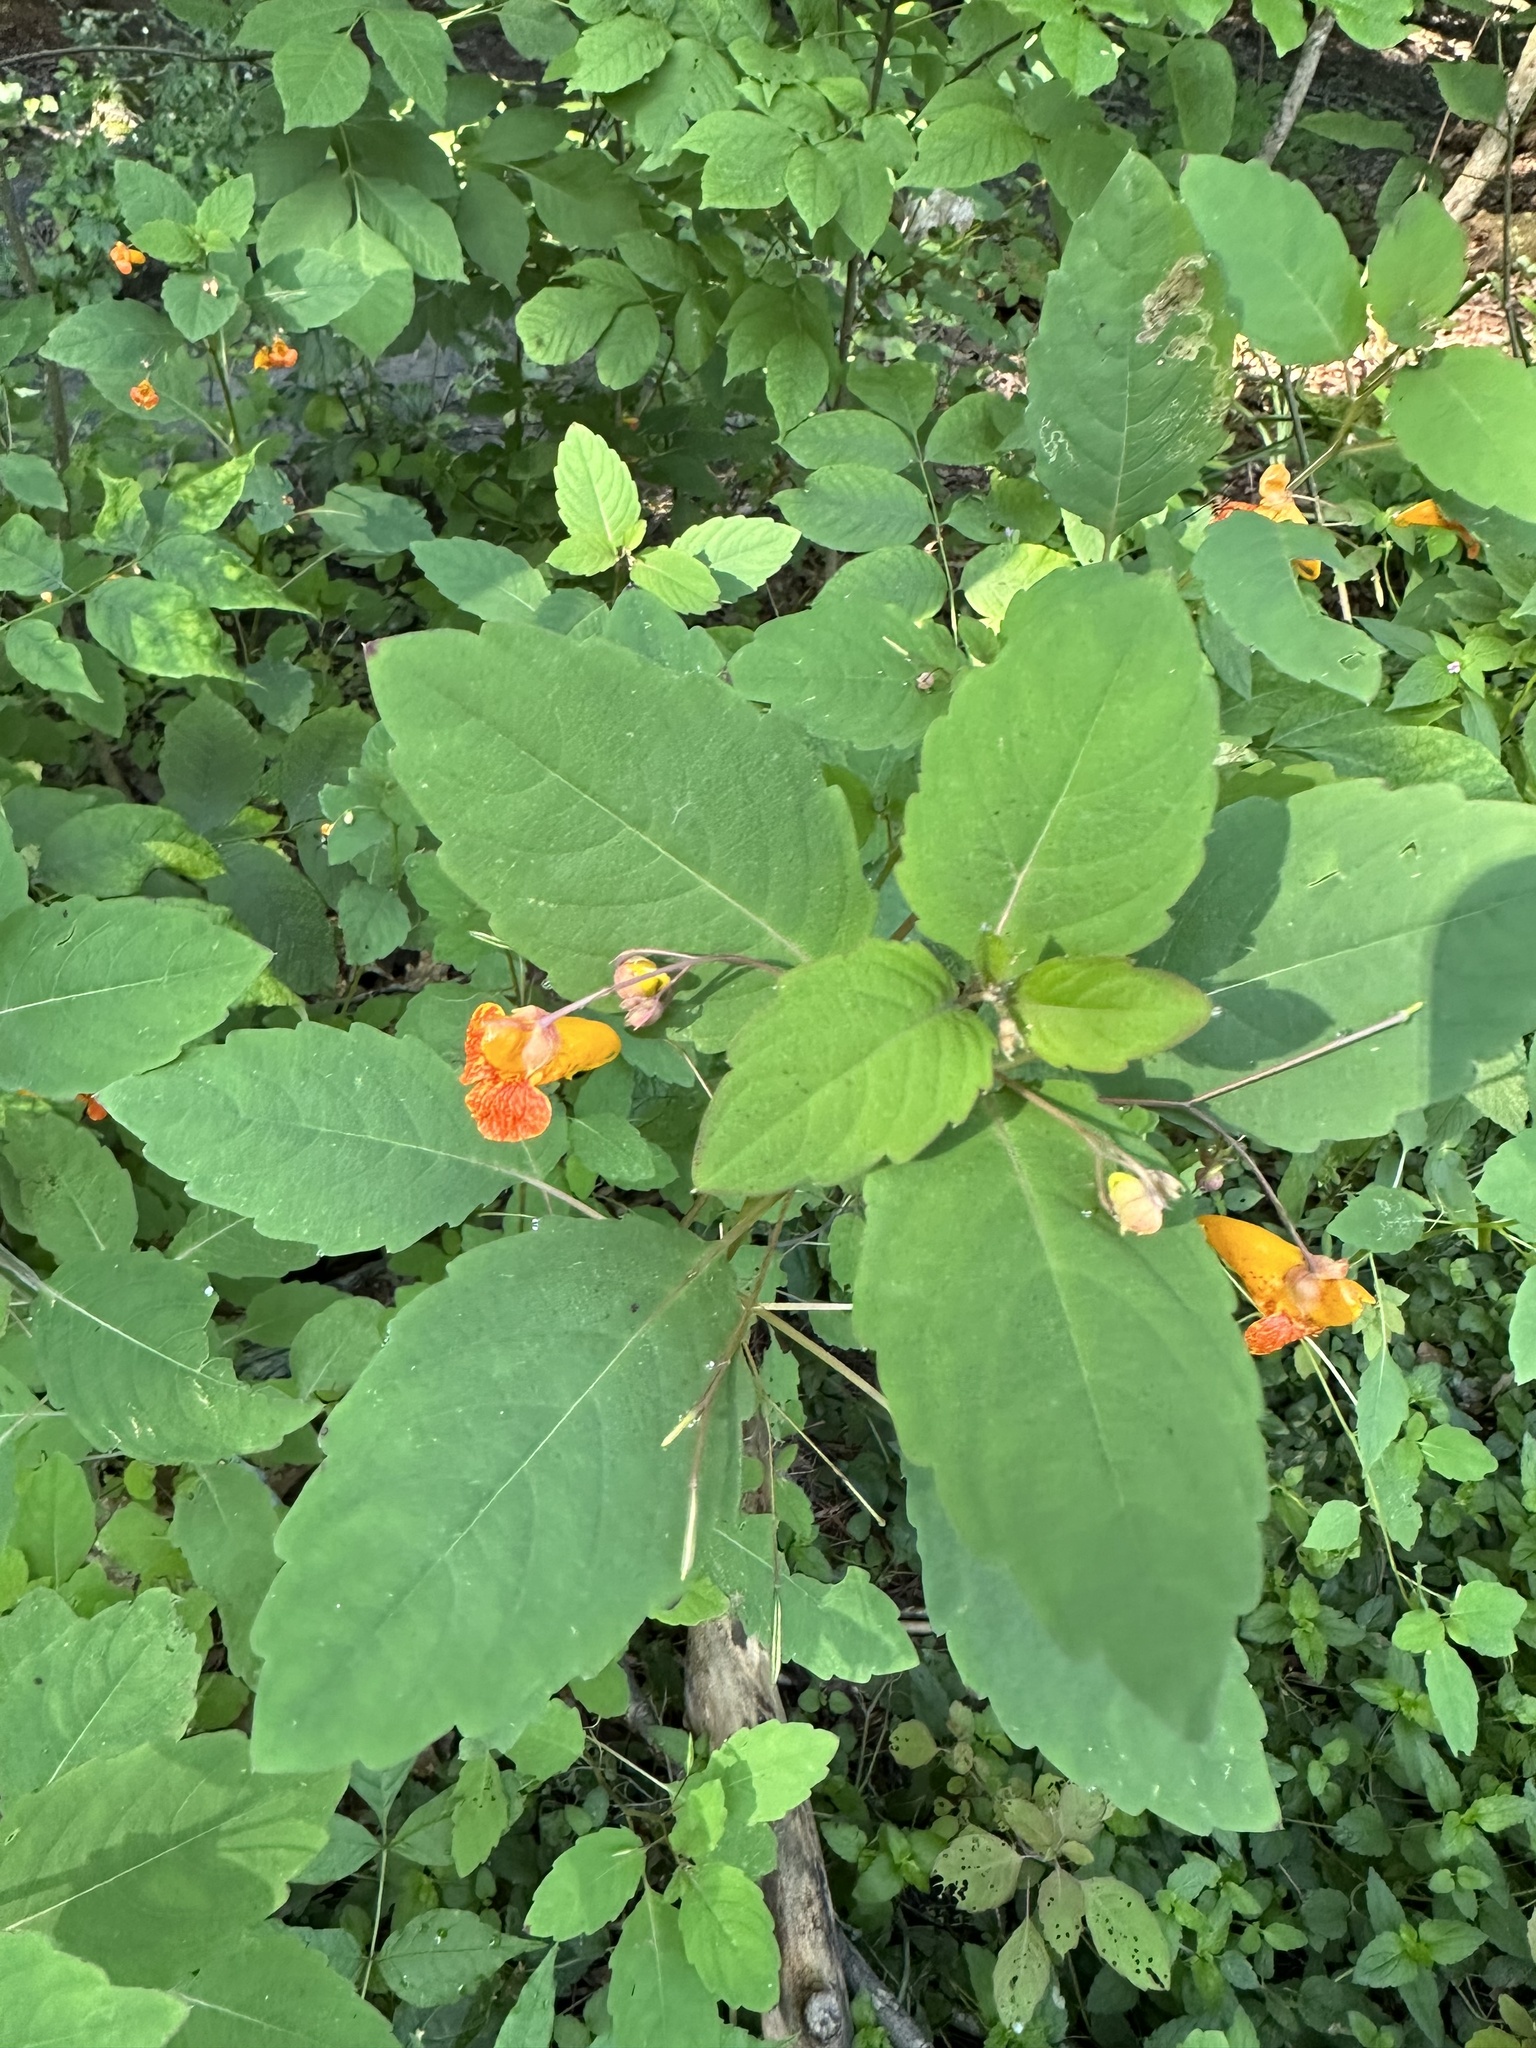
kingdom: Plantae
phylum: Tracheophyta
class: Magnoliopsida
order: Ericales
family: Balsaminaceae
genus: Impatiens
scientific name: Impatiens capensis
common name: Orange balsam
